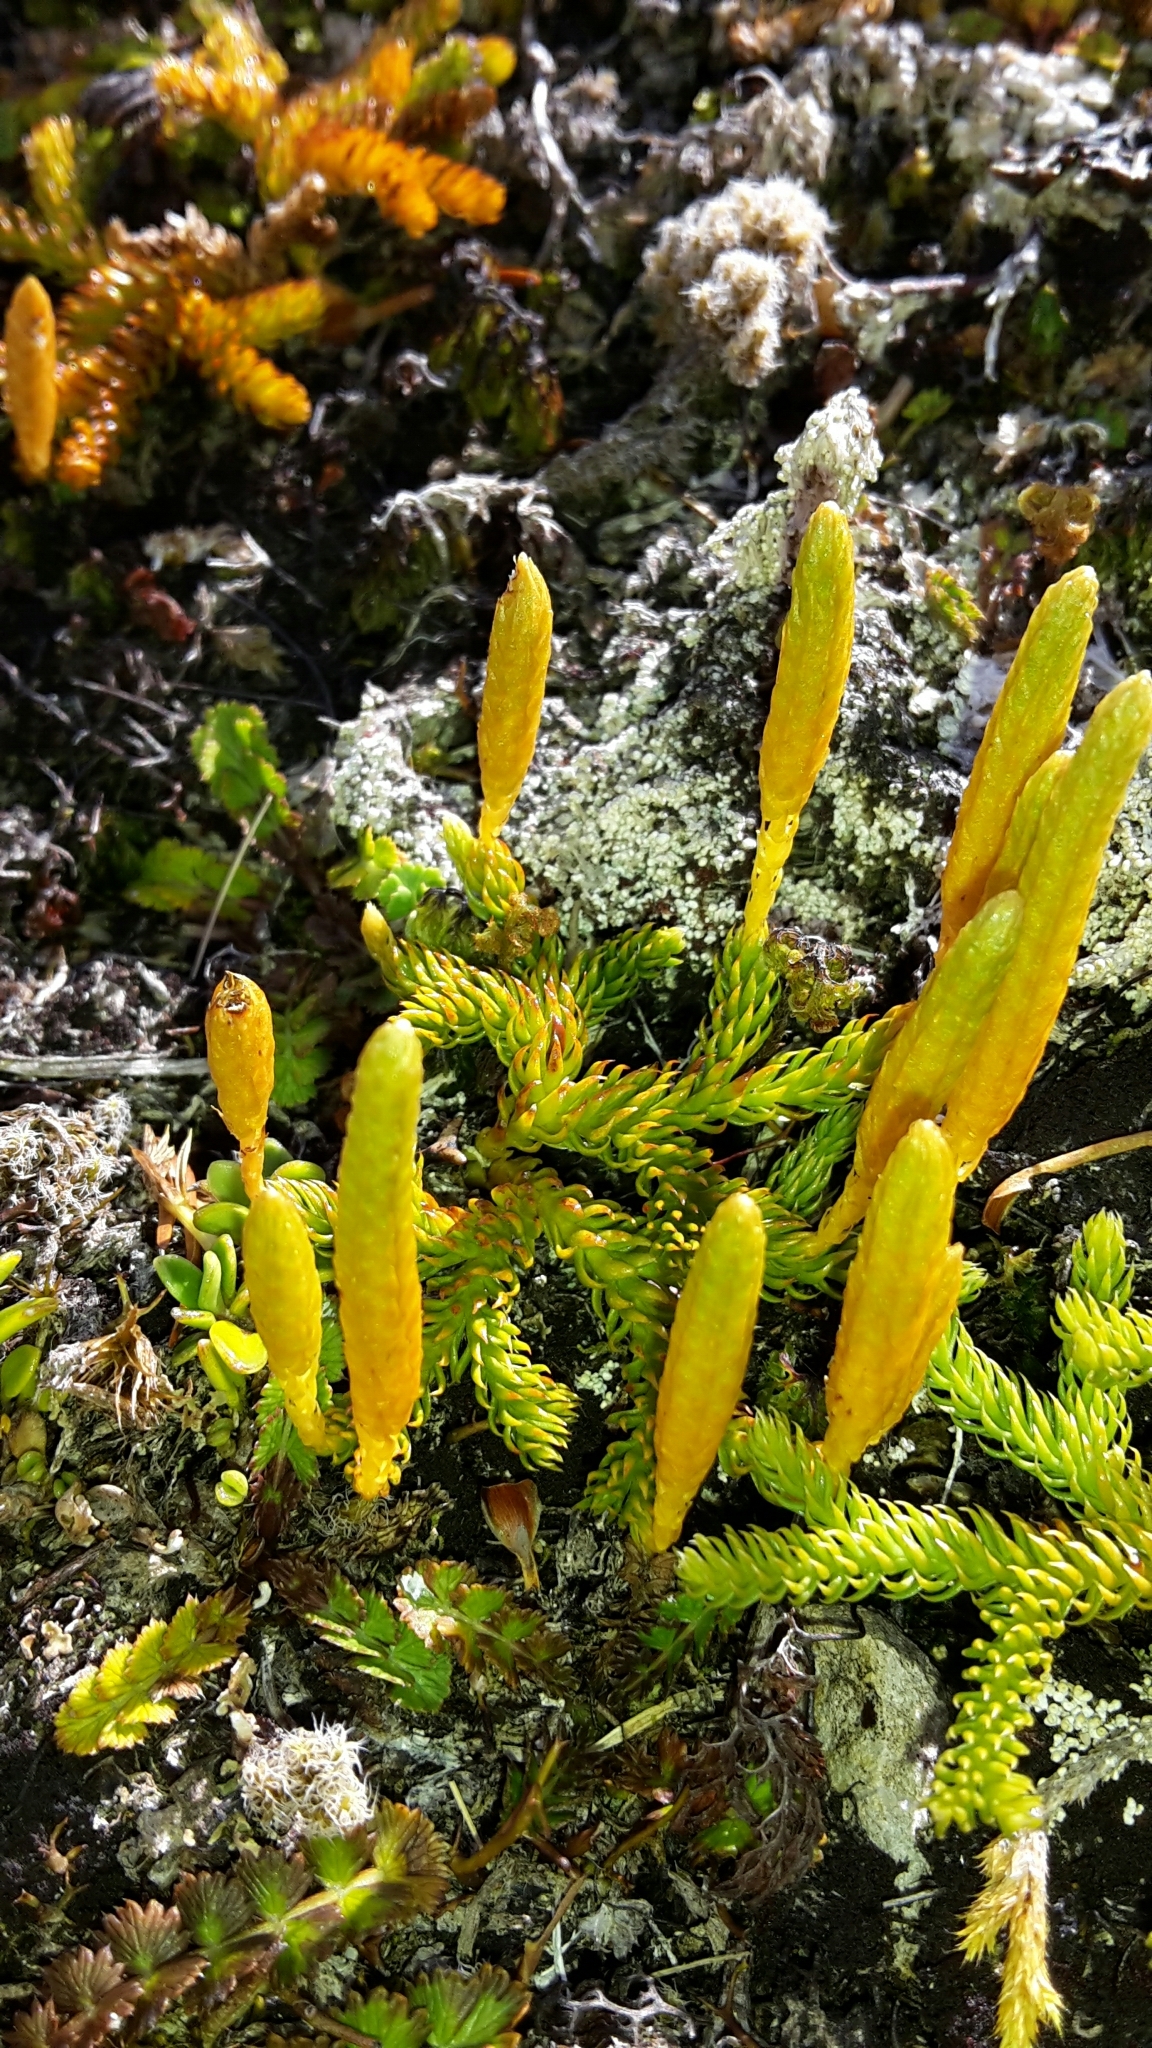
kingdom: Plantae
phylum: Tracheophyta
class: Lycopodiopsida
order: Lycopodiales
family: Lycopodiaceae
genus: Austrolycopodium
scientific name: Austrolycopodium fastigiatum
